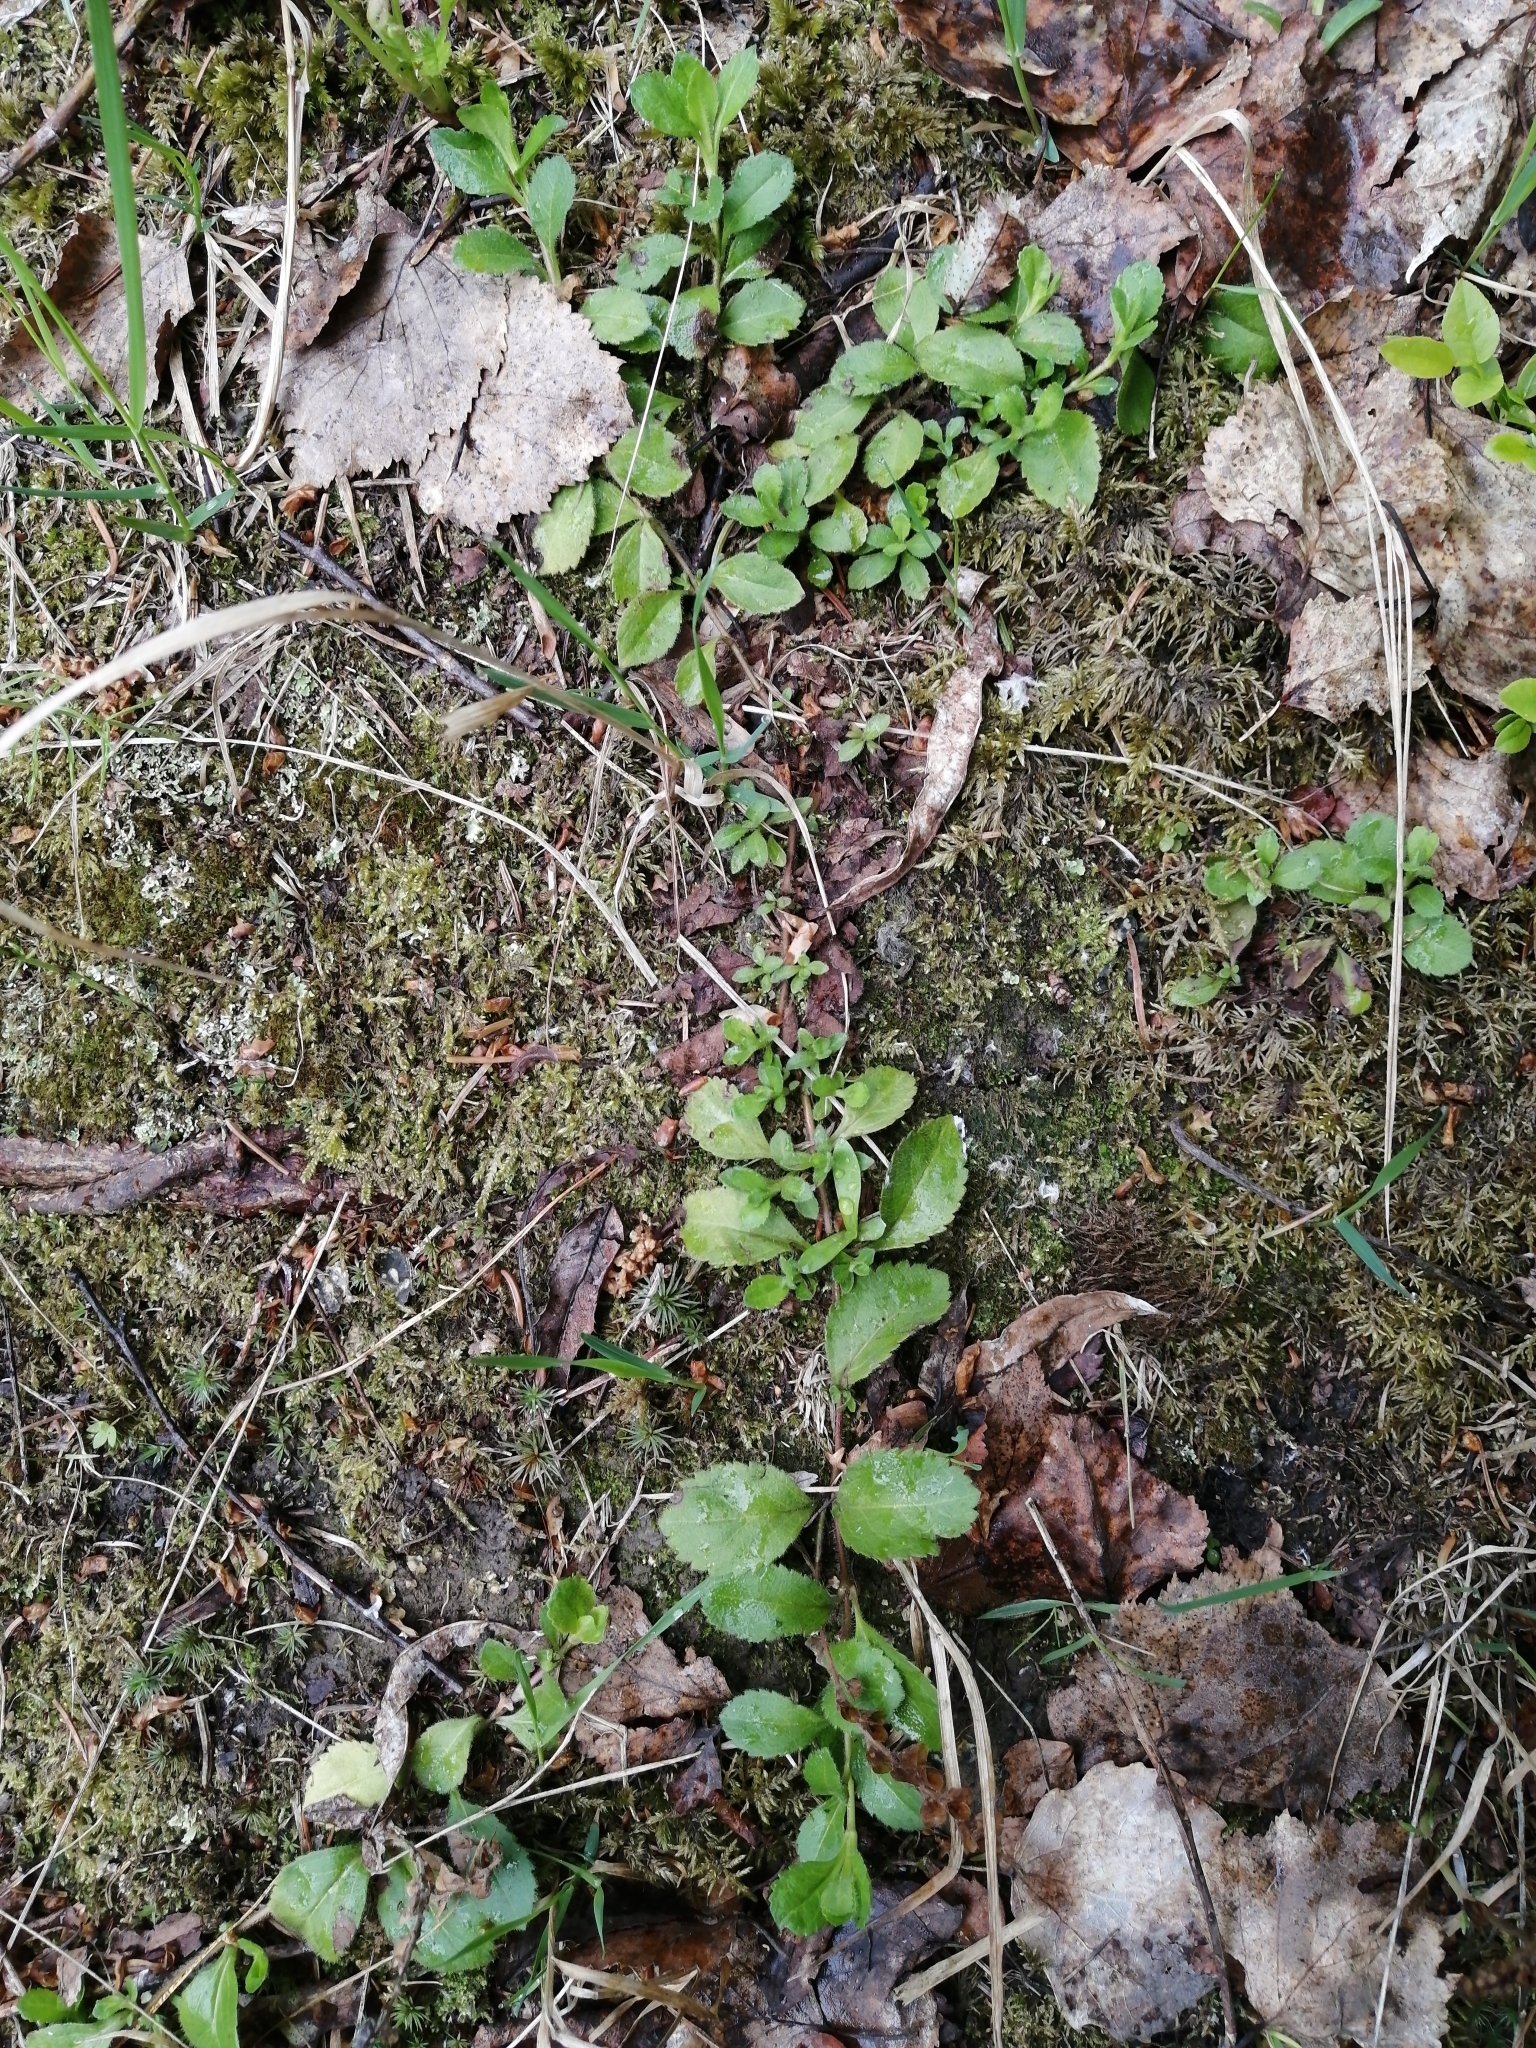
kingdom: Plantae
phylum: Tracheophyta
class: Magnoliopsida
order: Lamiales
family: Plantaginaceae
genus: Veronica
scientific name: Veronica officinalis
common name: Common speedwell
